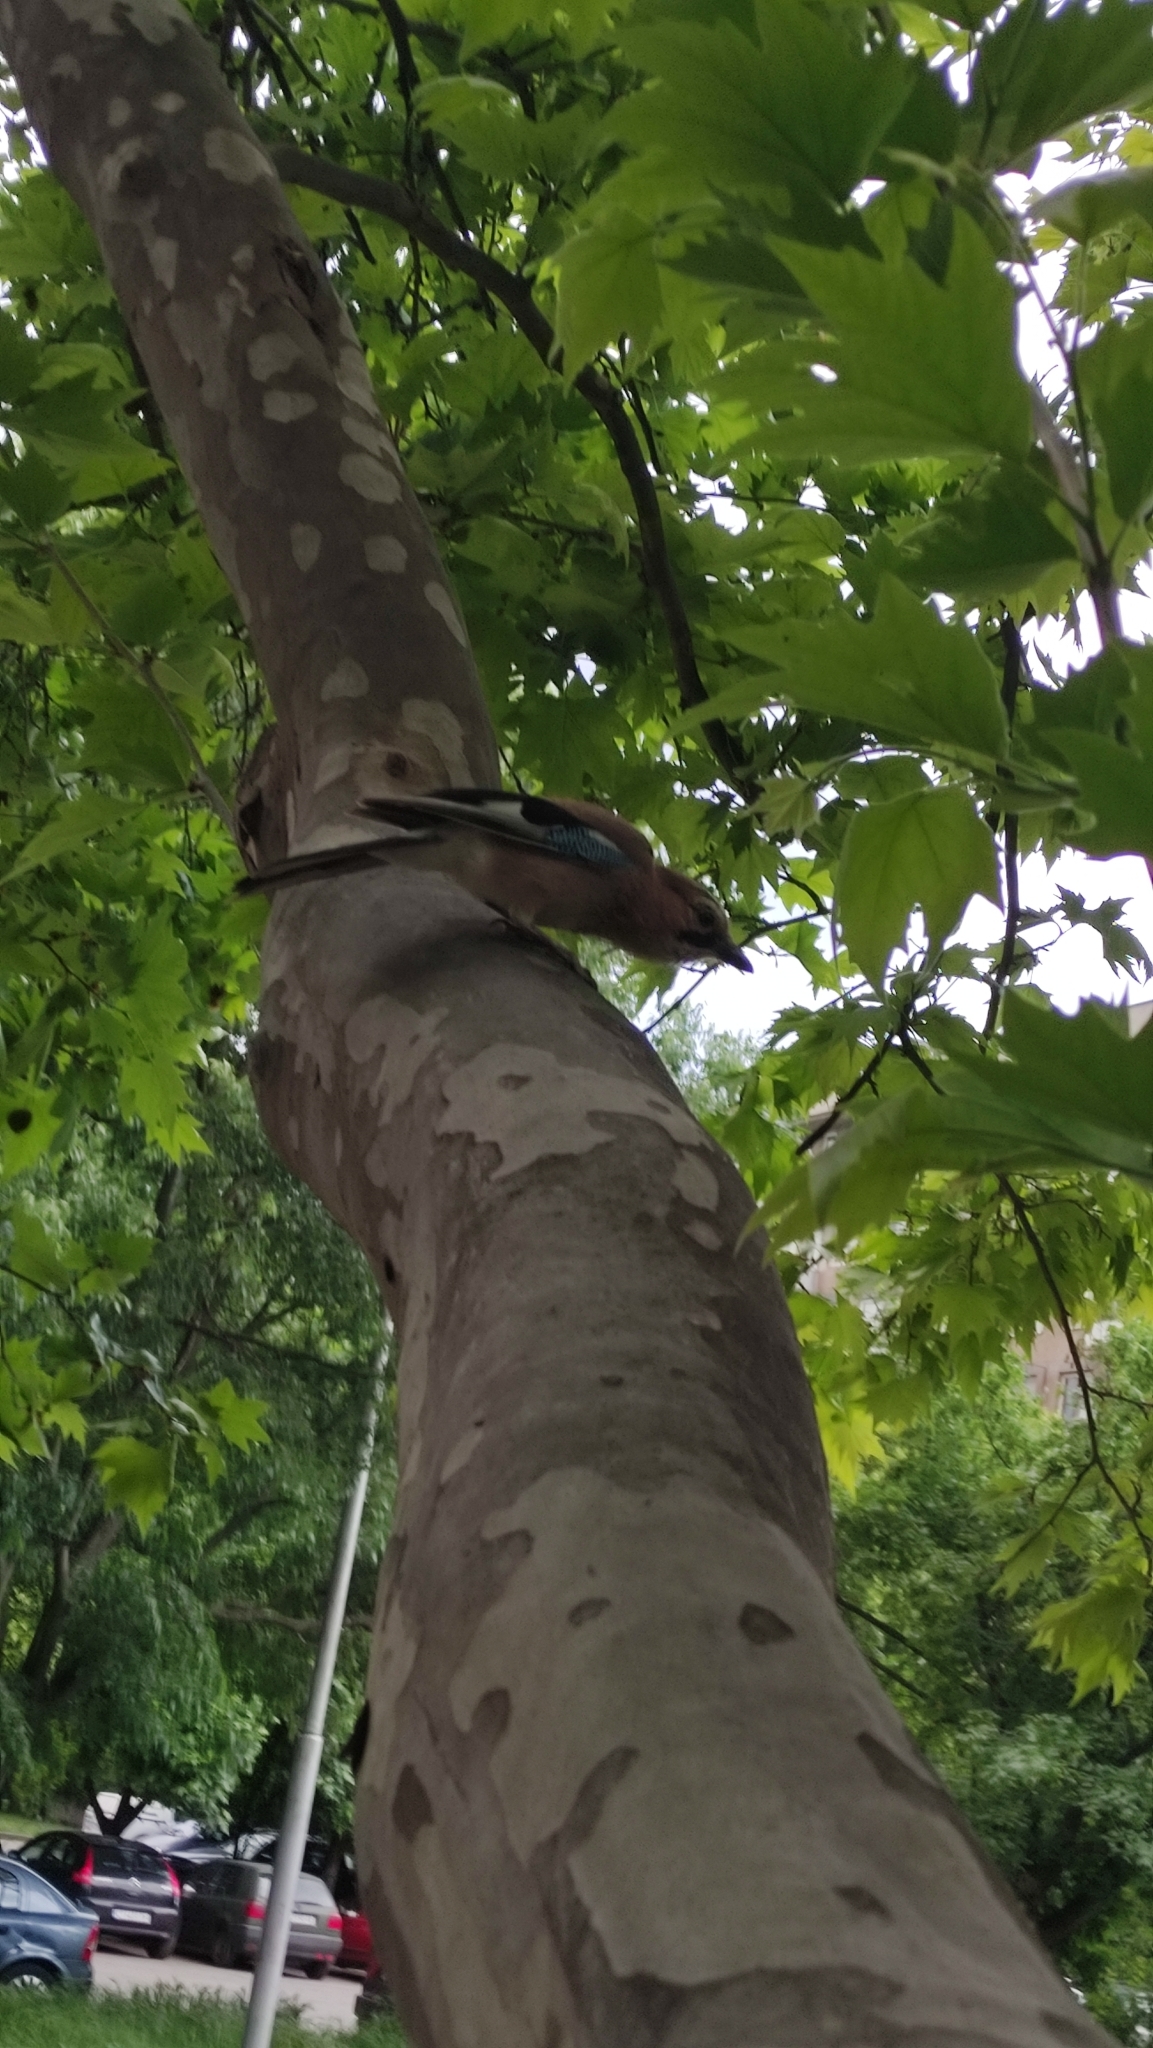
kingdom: Animalia
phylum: Chordata
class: Aves
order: Passeriformes
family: Corvidae
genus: Garrulus
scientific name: Garrulus glandarius
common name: Eurasian jay
